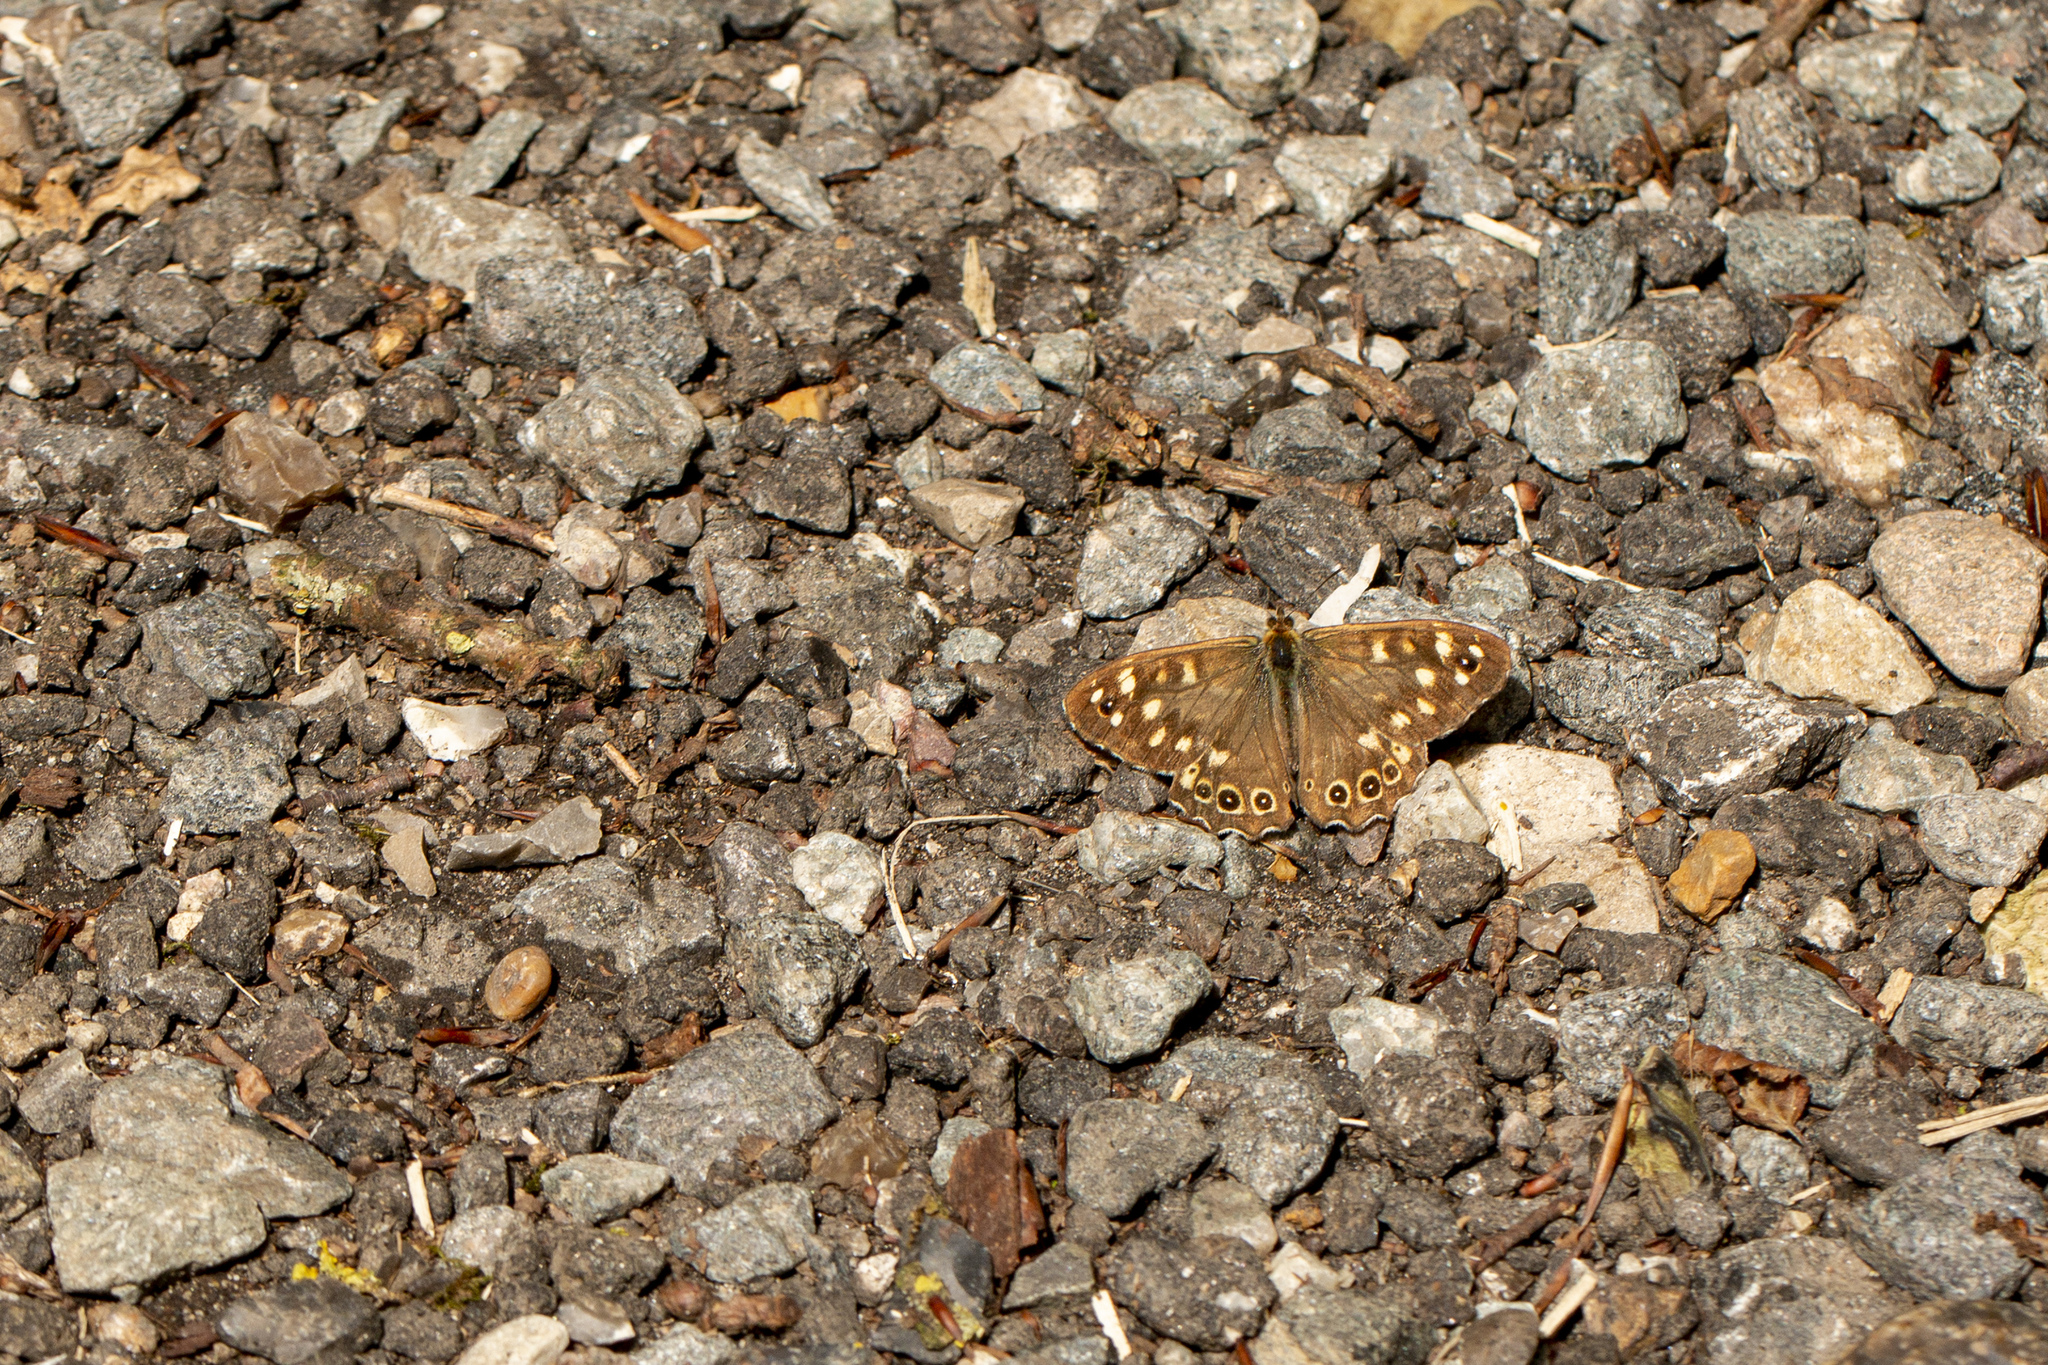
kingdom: Animalia
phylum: Arthropoda
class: Insecta
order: Lepidoptera
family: Nymphalidae
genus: Pararge
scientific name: Pararge aegeria
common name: Speckled wood
